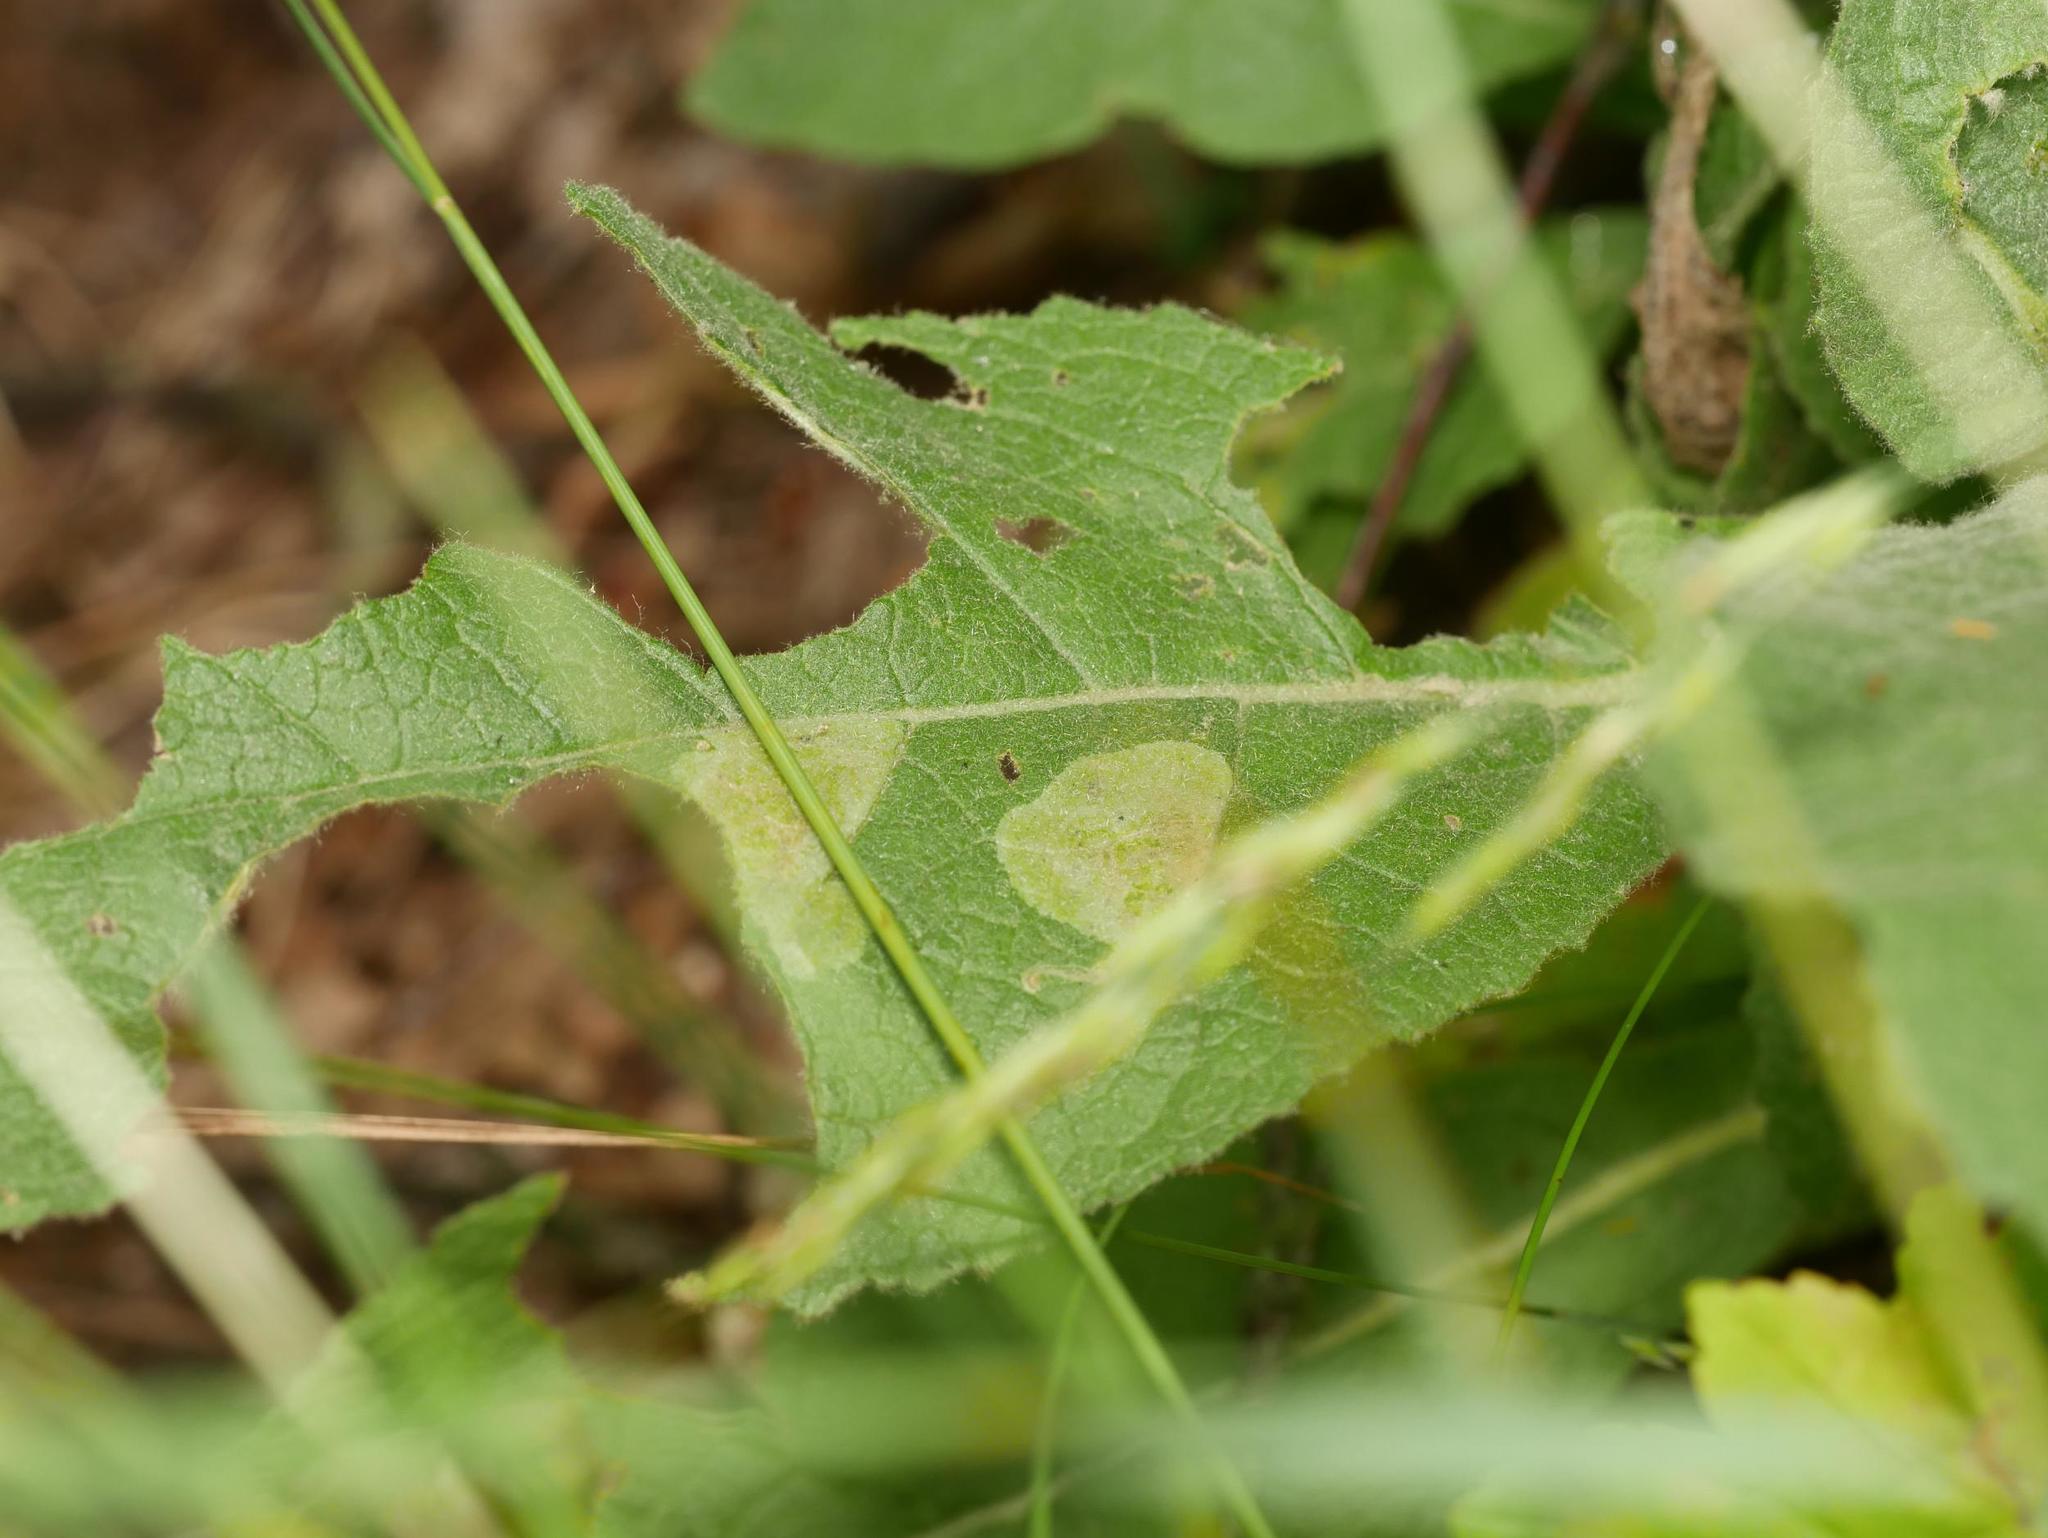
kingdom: Animalia
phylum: Arthropoda
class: Insecta
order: Diptera
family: Agromyzidae
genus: Amauromyza
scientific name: Amauromyza verbasci
